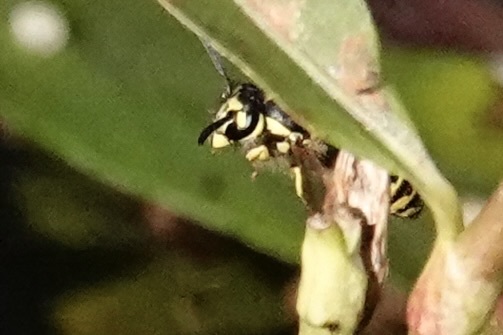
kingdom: Animalia
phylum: Arthropoda
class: Insecta
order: Hymenoptera
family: Vespidae
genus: Vespula
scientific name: Vespula maculifrons
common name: Eastern yellowjacket
